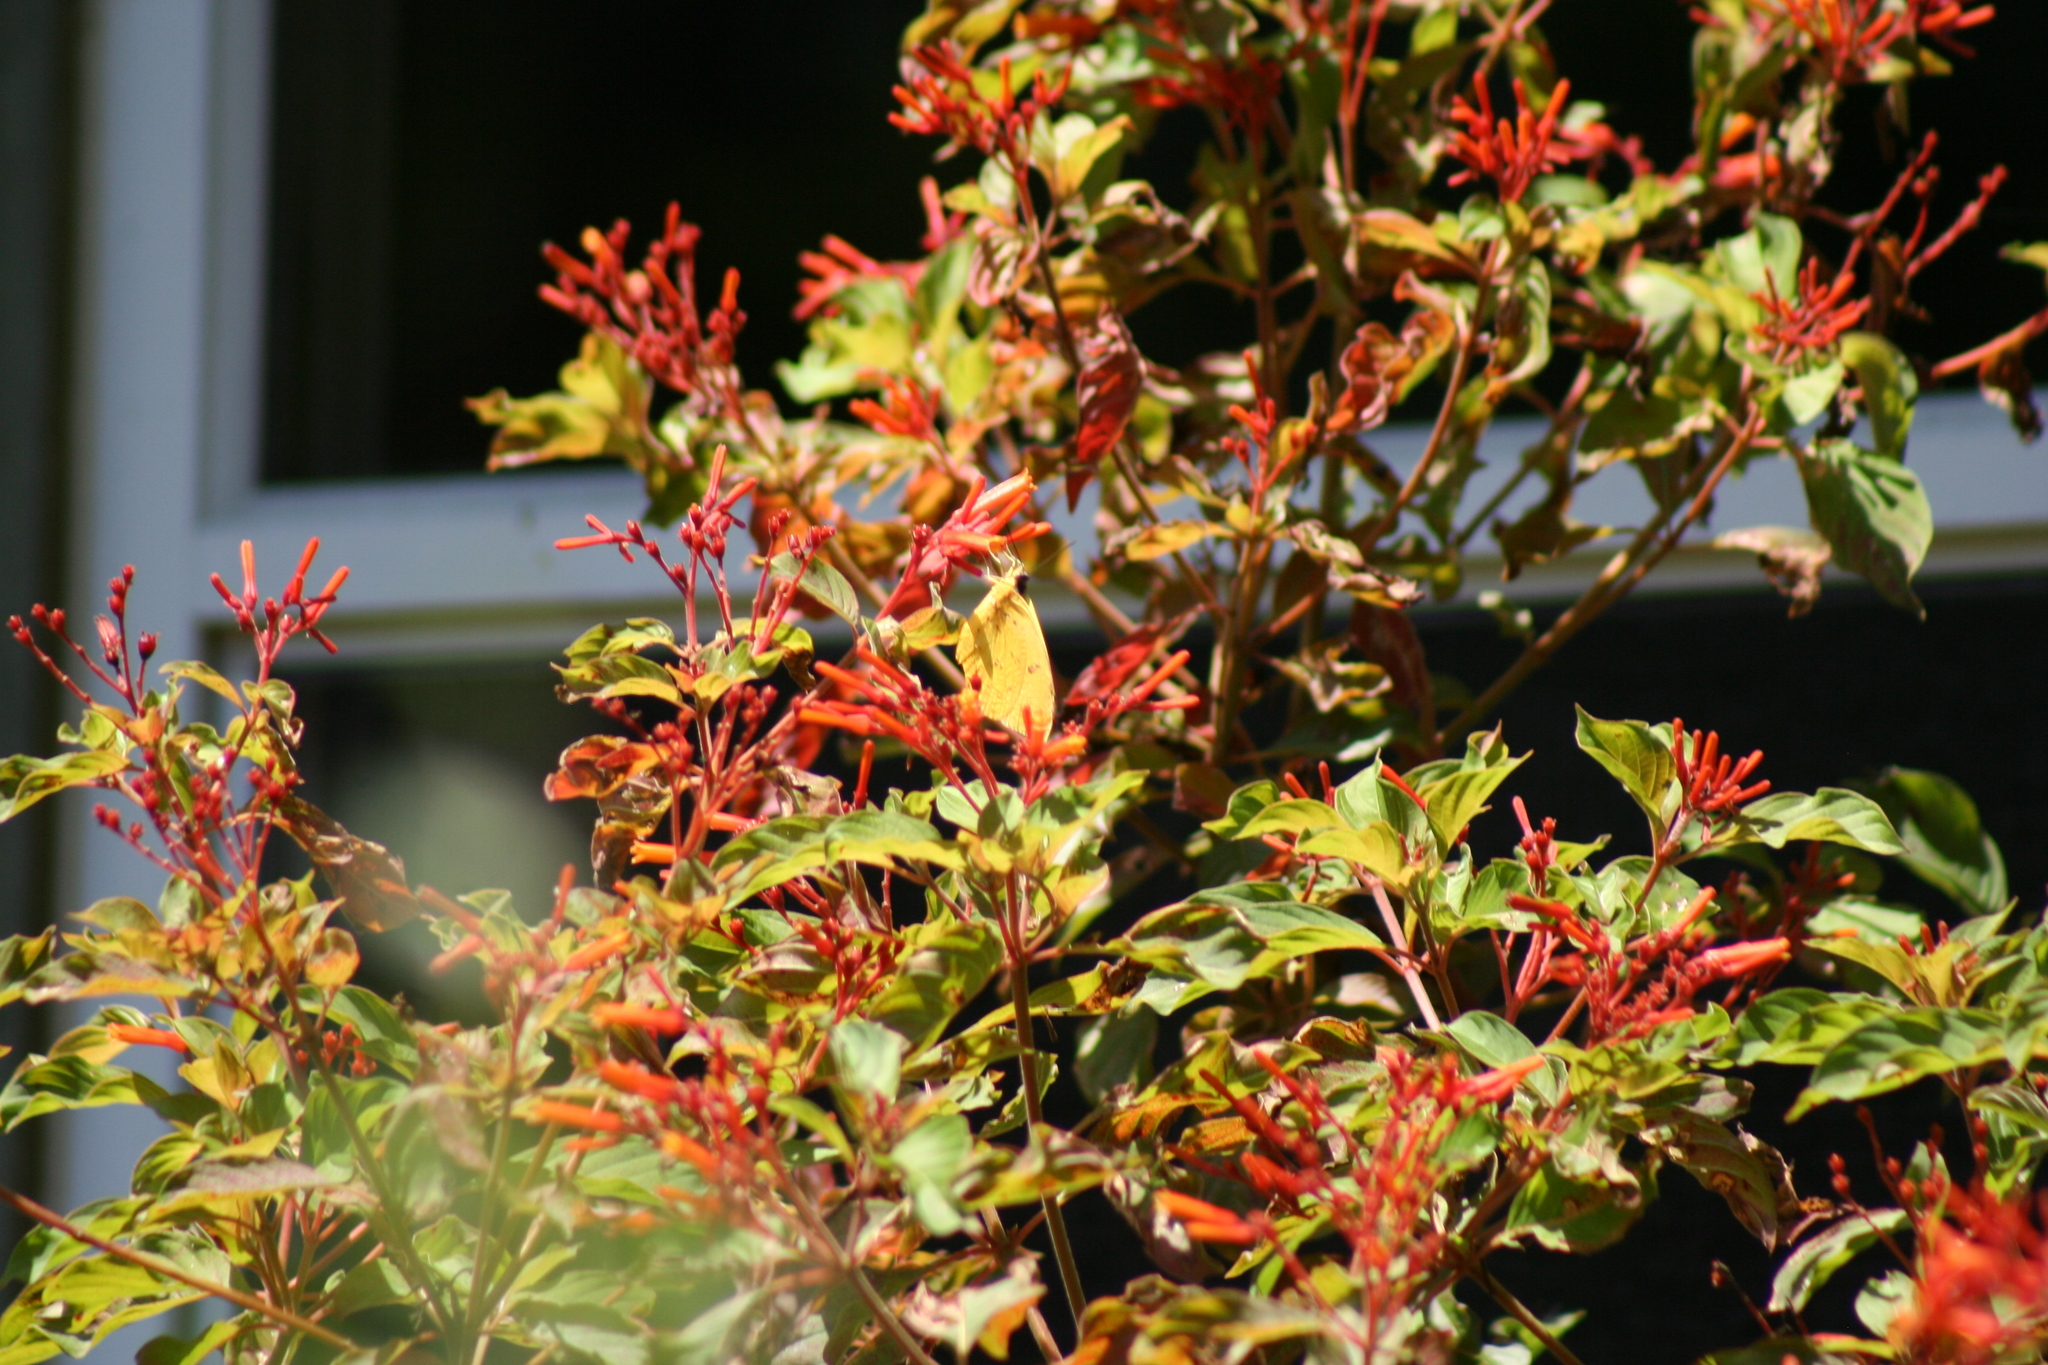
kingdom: Animalia
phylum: Arthropoda
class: Insecta
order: Lepidoptera
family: Pieridae
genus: Phoebis
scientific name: Phoebis sennae
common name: Cloudless sulphur
